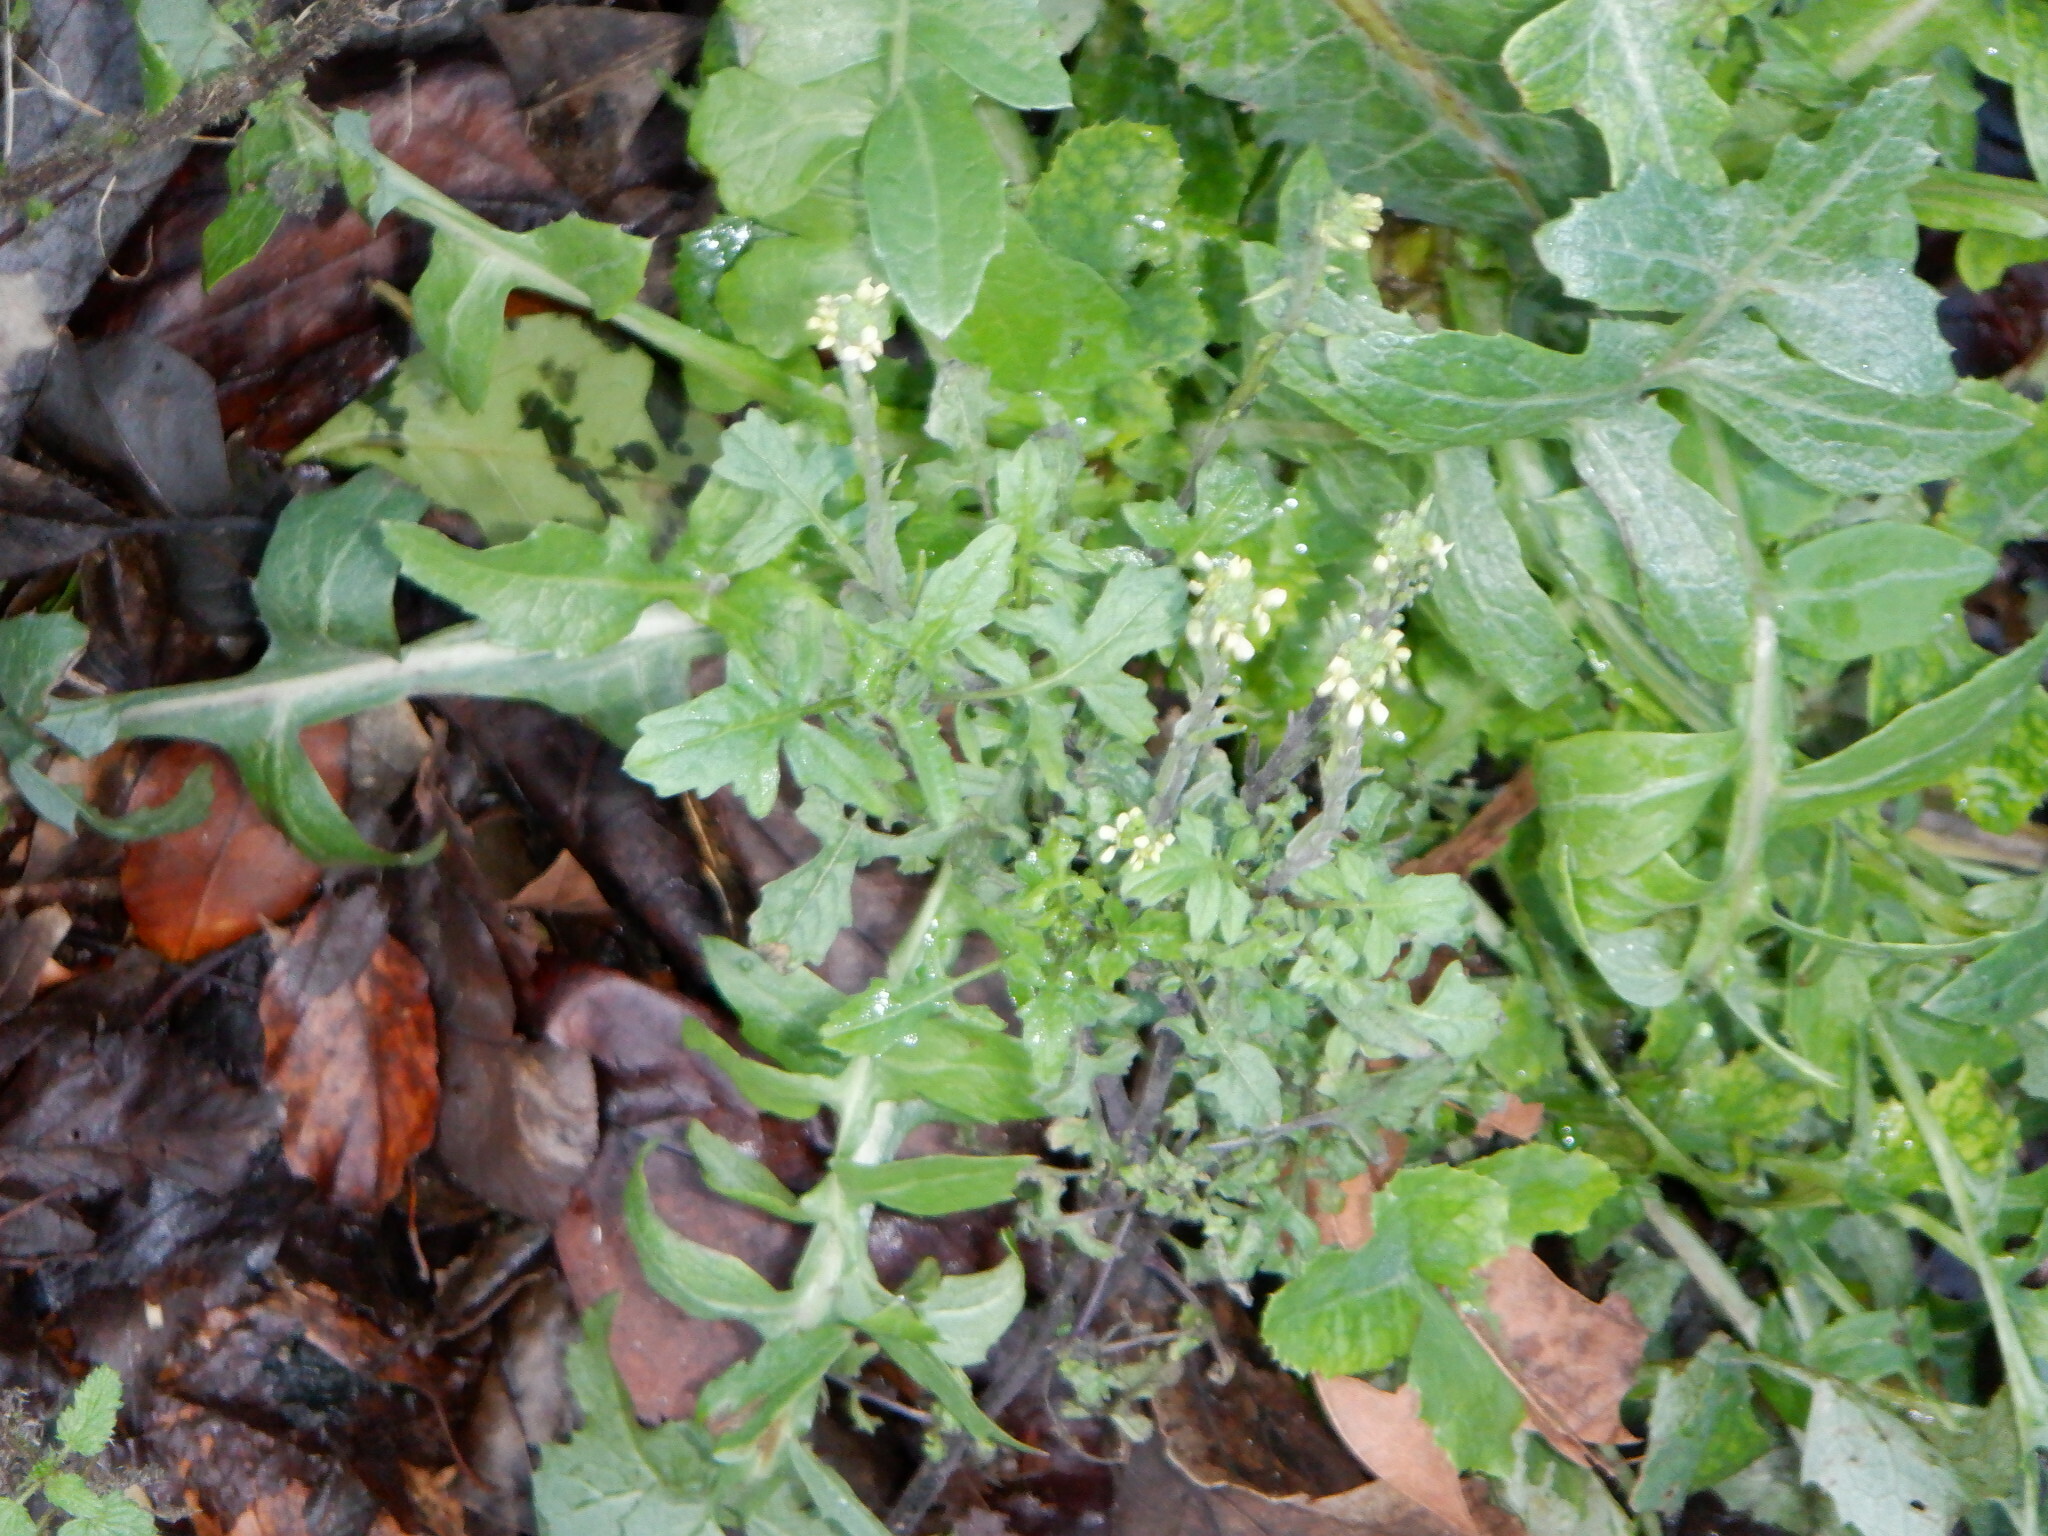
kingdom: Plantae
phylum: Tracheophyta
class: Magnoliopsida
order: Brassicales
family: Brassicaceae
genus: Sisymbrium
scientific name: Sisymbrium officinale
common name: Hedge mustard
